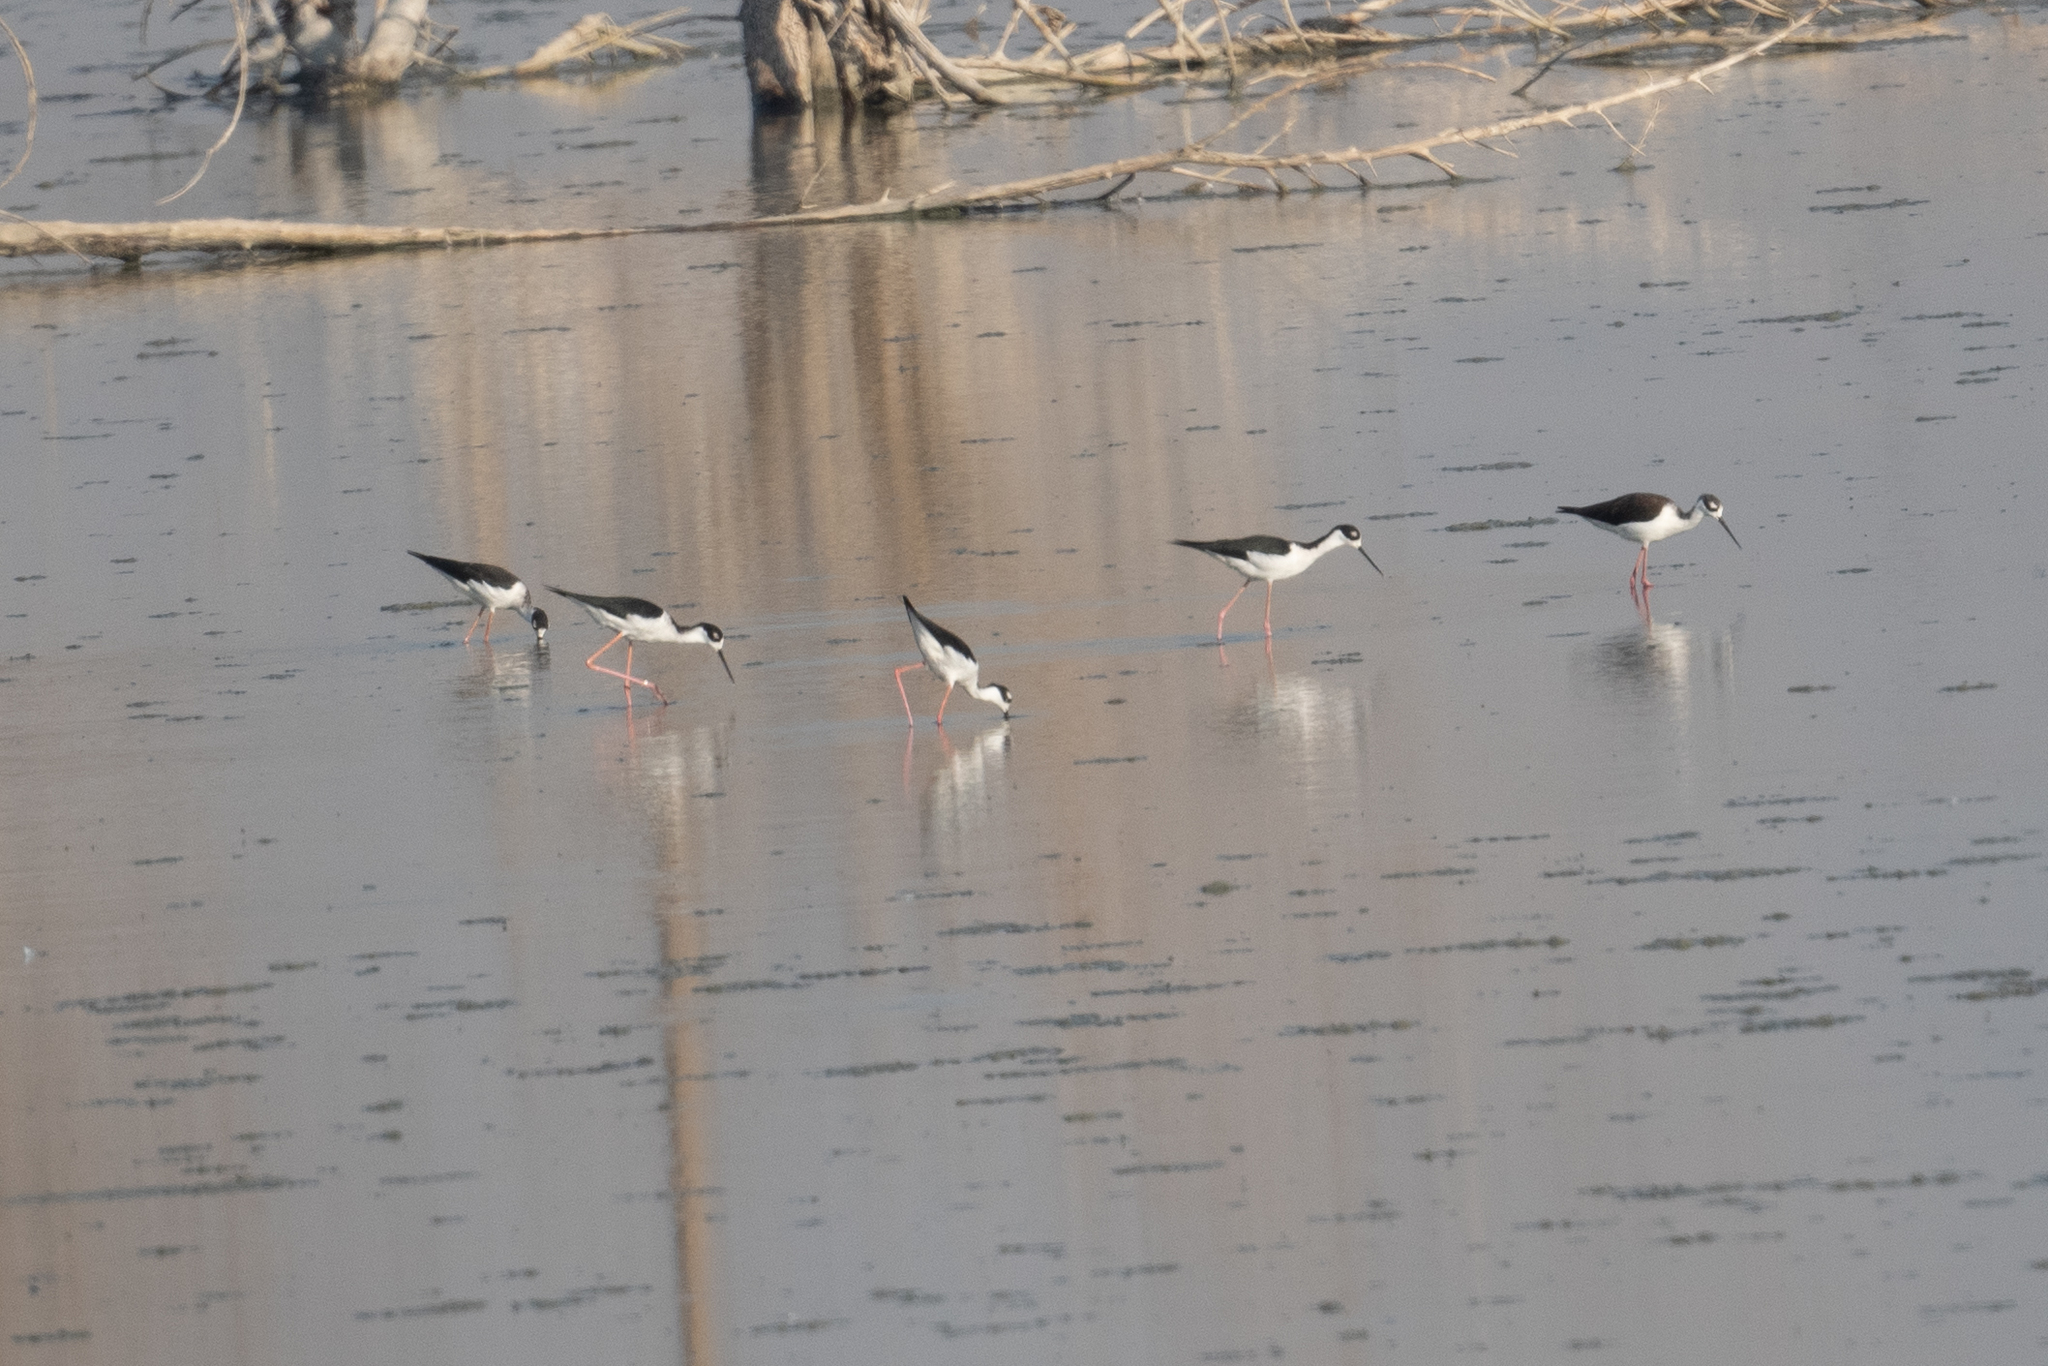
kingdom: Animalia
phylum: Chordata
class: Aves
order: Charadriiformes
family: Recurvirostridae
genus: Himantopus
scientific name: Himantopus mexicanus
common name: Black-necked stilt
